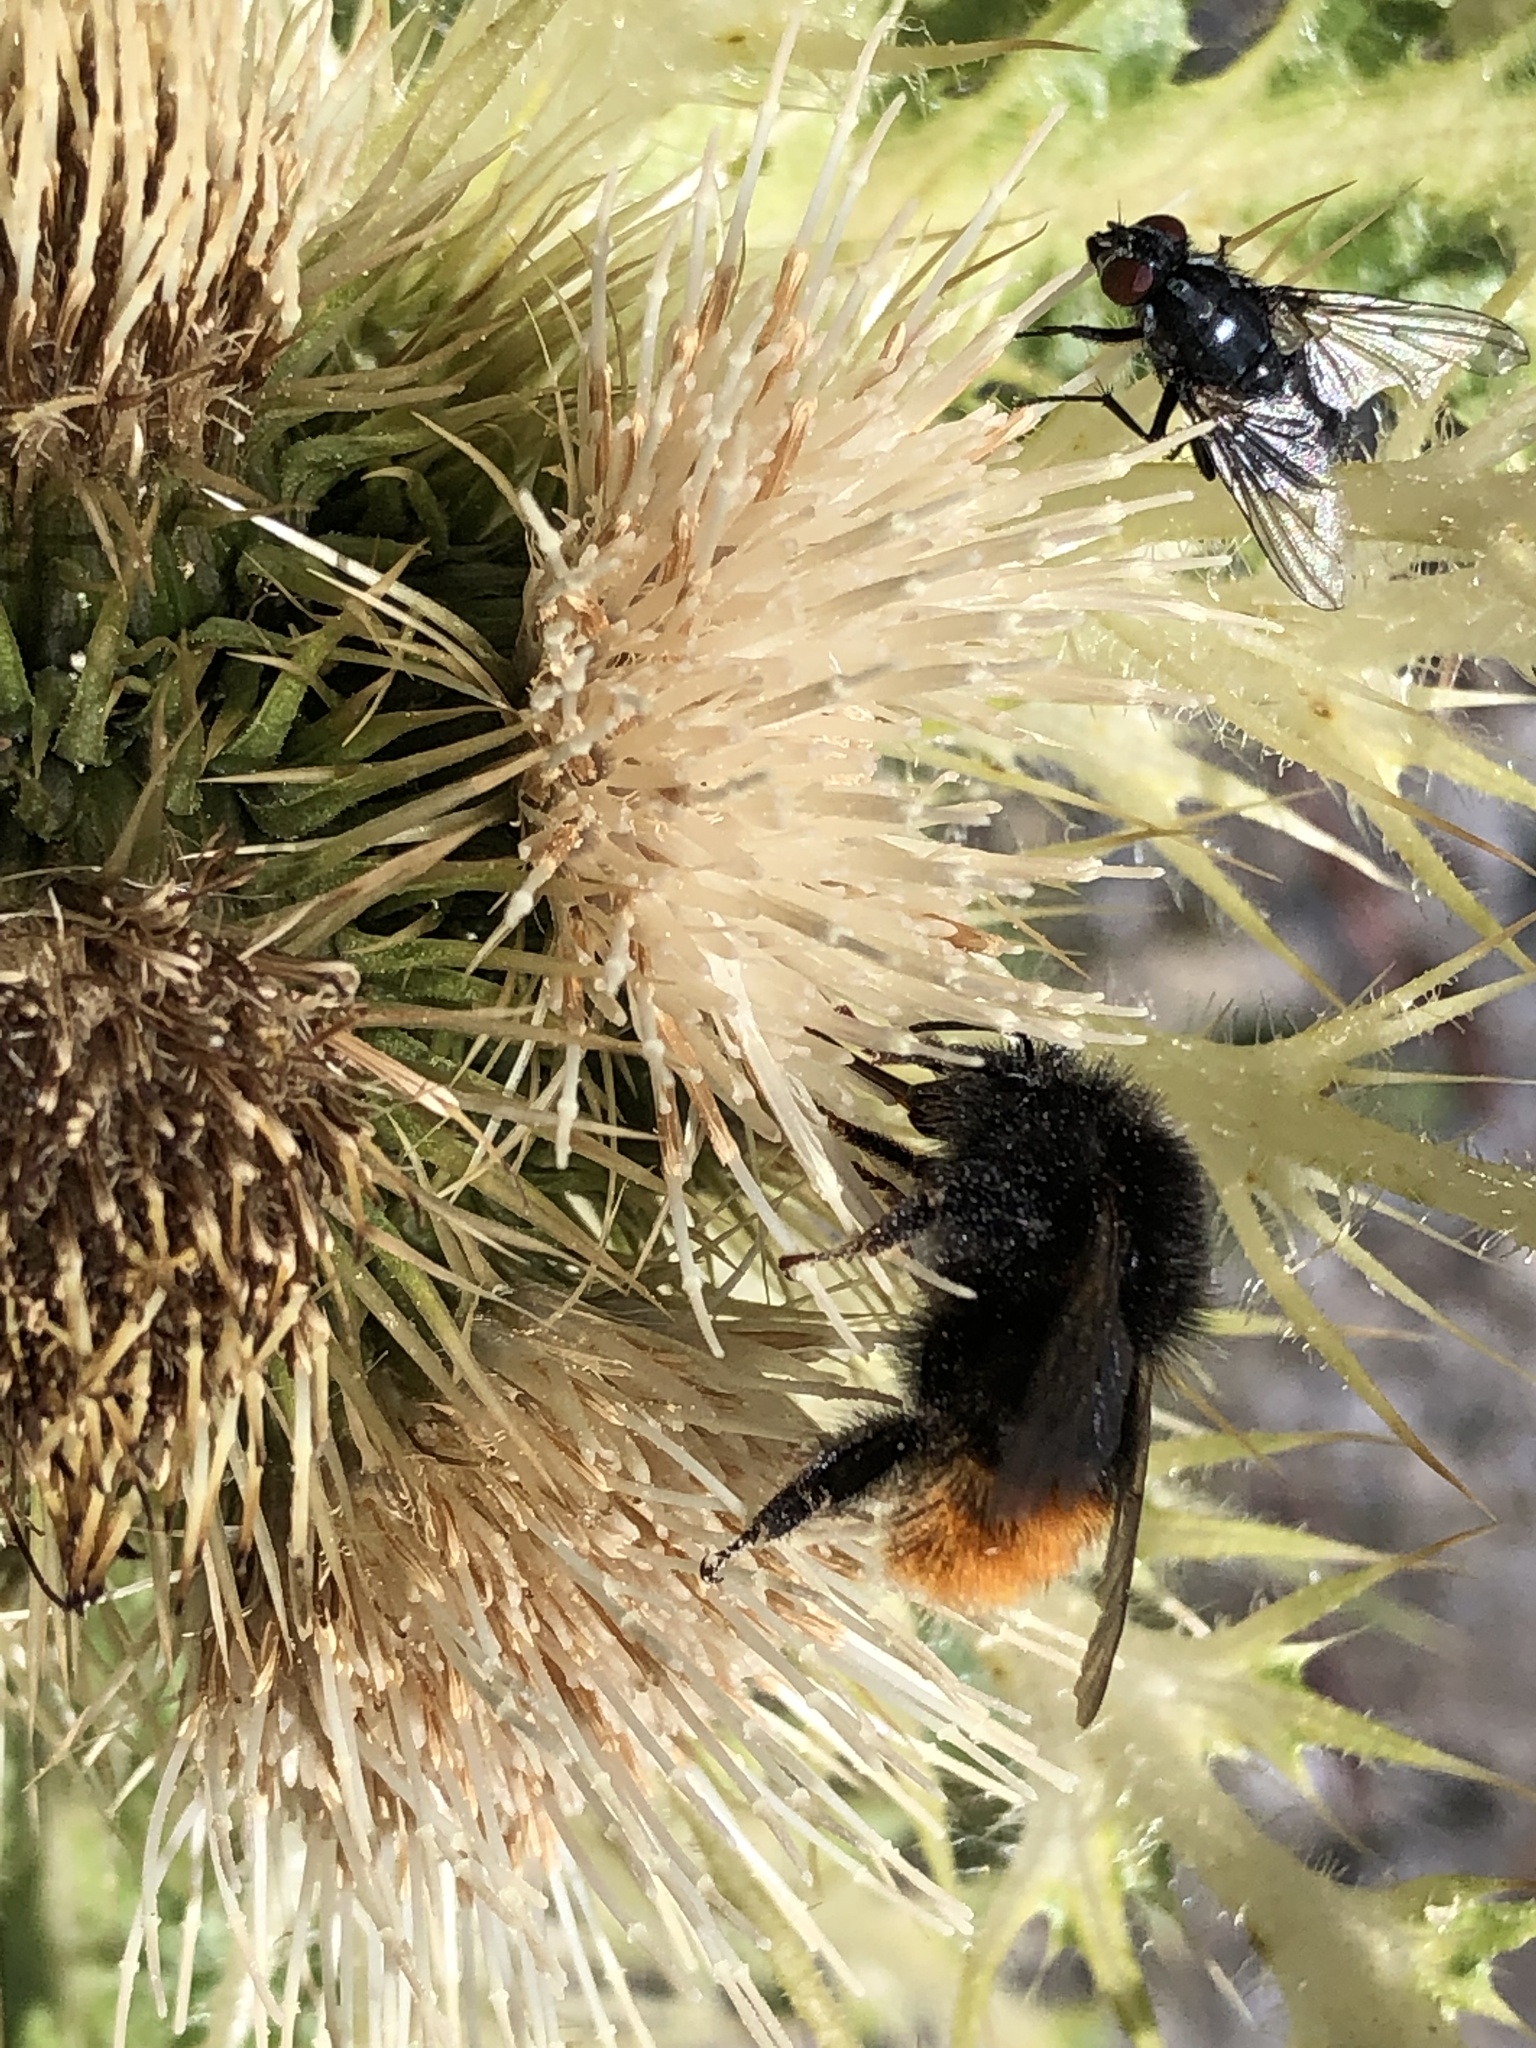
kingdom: Animalia
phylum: Arthropoda
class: Insecta
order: Hymenoptera
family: Apidae
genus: Bombus
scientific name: Bombus wurflenii
